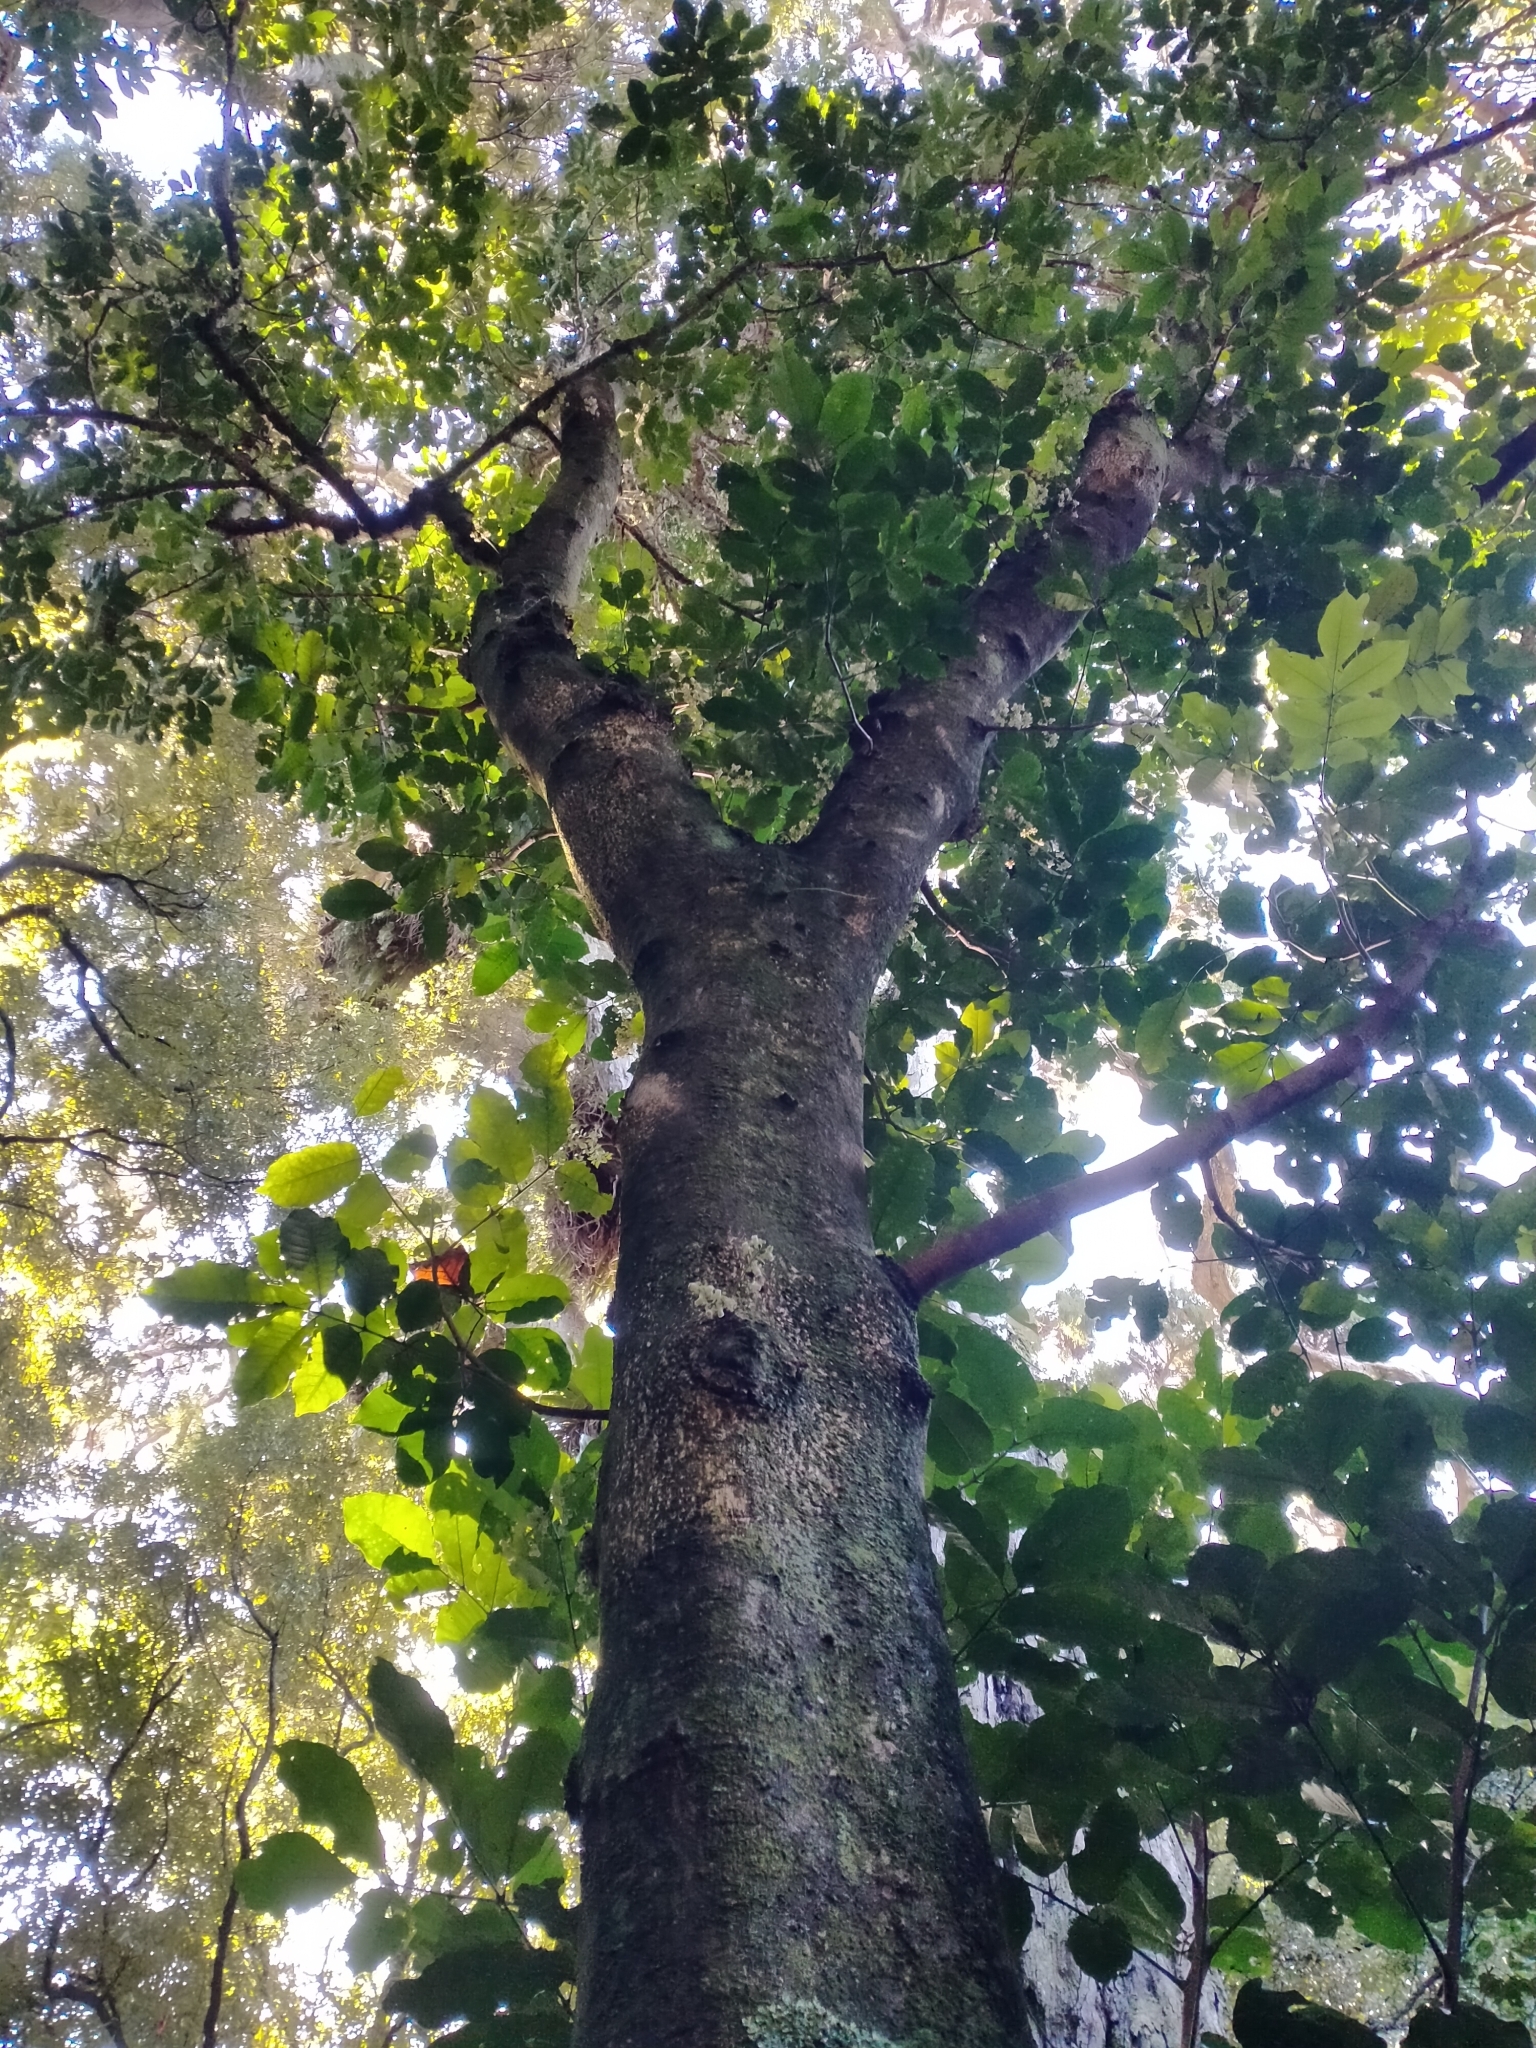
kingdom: Plantae
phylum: Tracheophyta
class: Magnoliopsida
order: Sapindales
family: Meliaceae
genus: Didymocheton
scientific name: Didymocheton spectabilis
